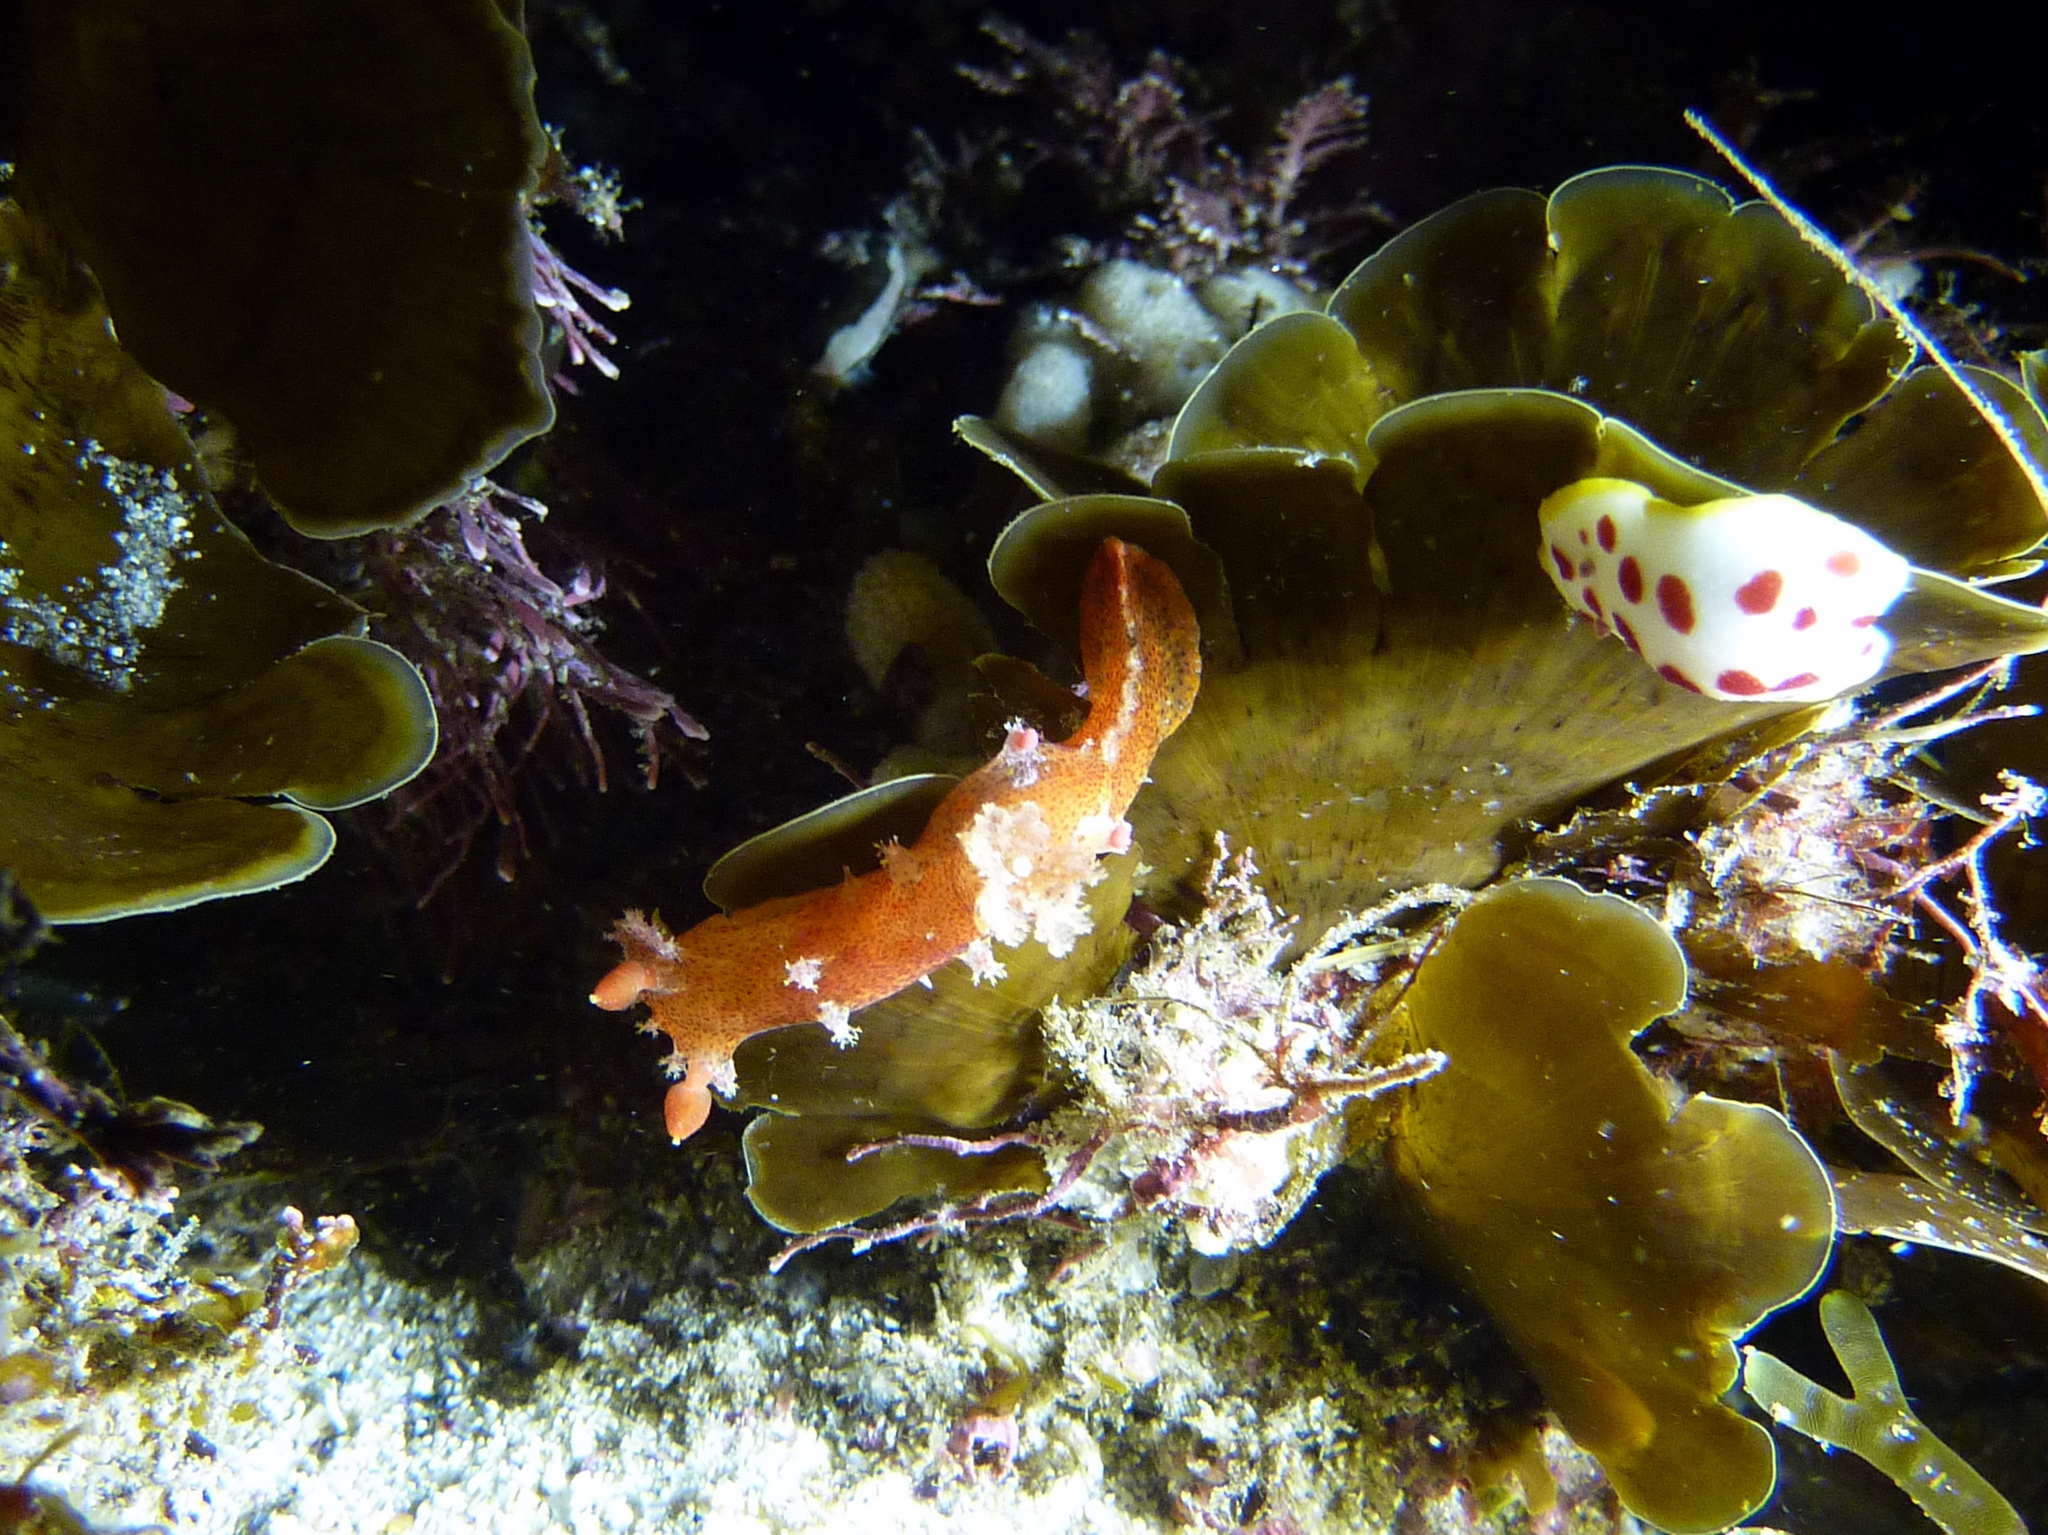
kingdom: Animalia
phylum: Mollusca
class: Gastropoda
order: Nudibranchia
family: Polyceridae
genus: Plocamopherus
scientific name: Plocamopherus imperialis
